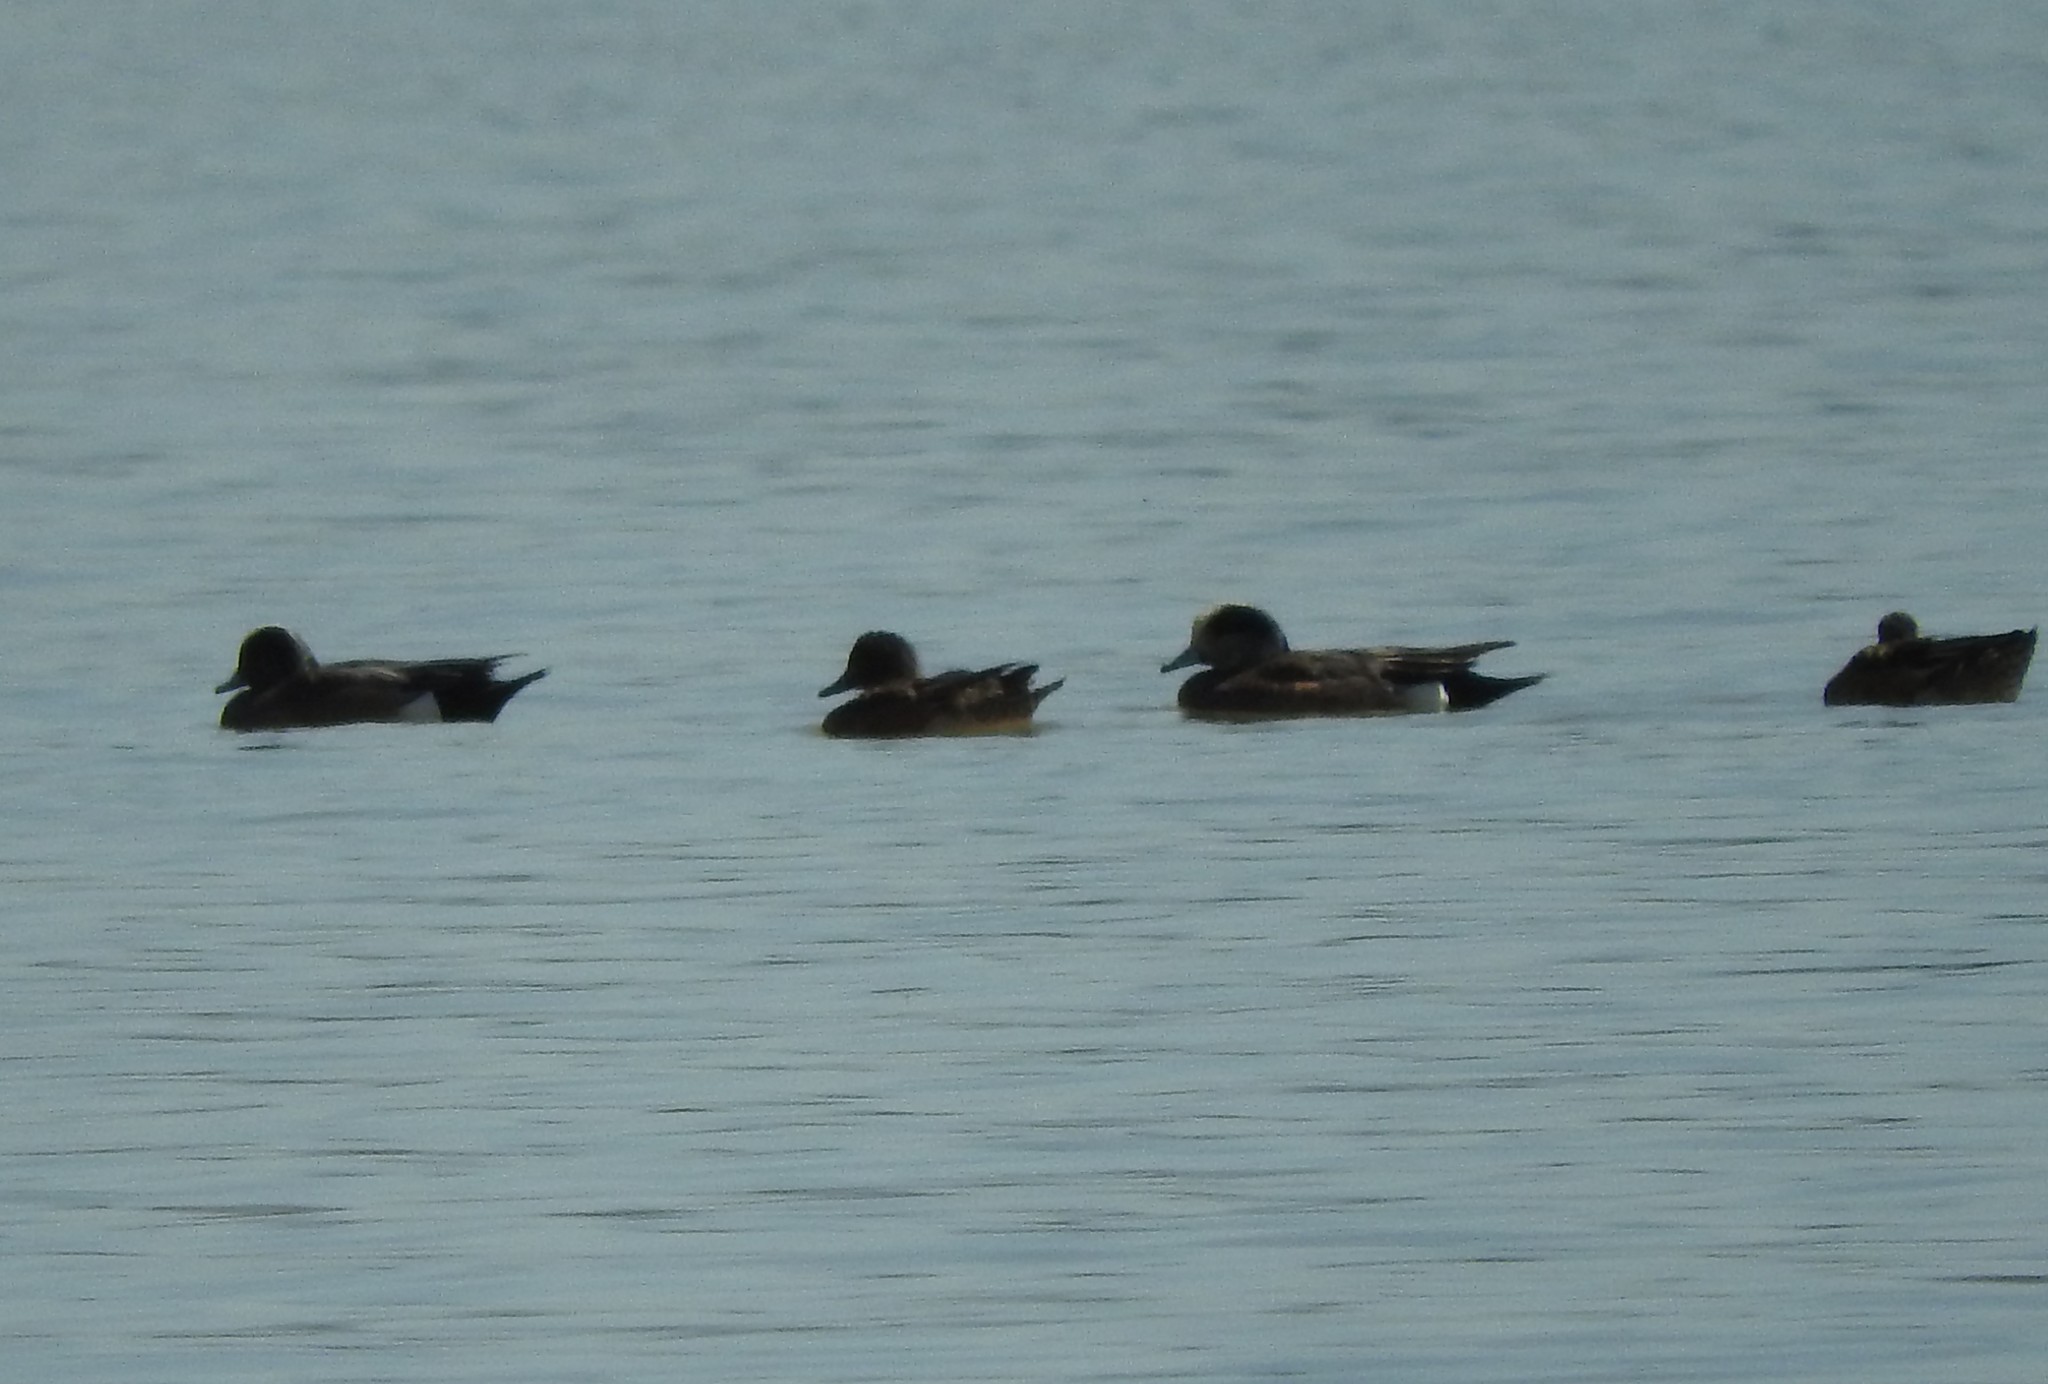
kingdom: Animalia
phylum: Chordata
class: Aves
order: Anseriformes
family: Anatidae
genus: Mareca
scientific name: Mareca americana
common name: American wigeon
